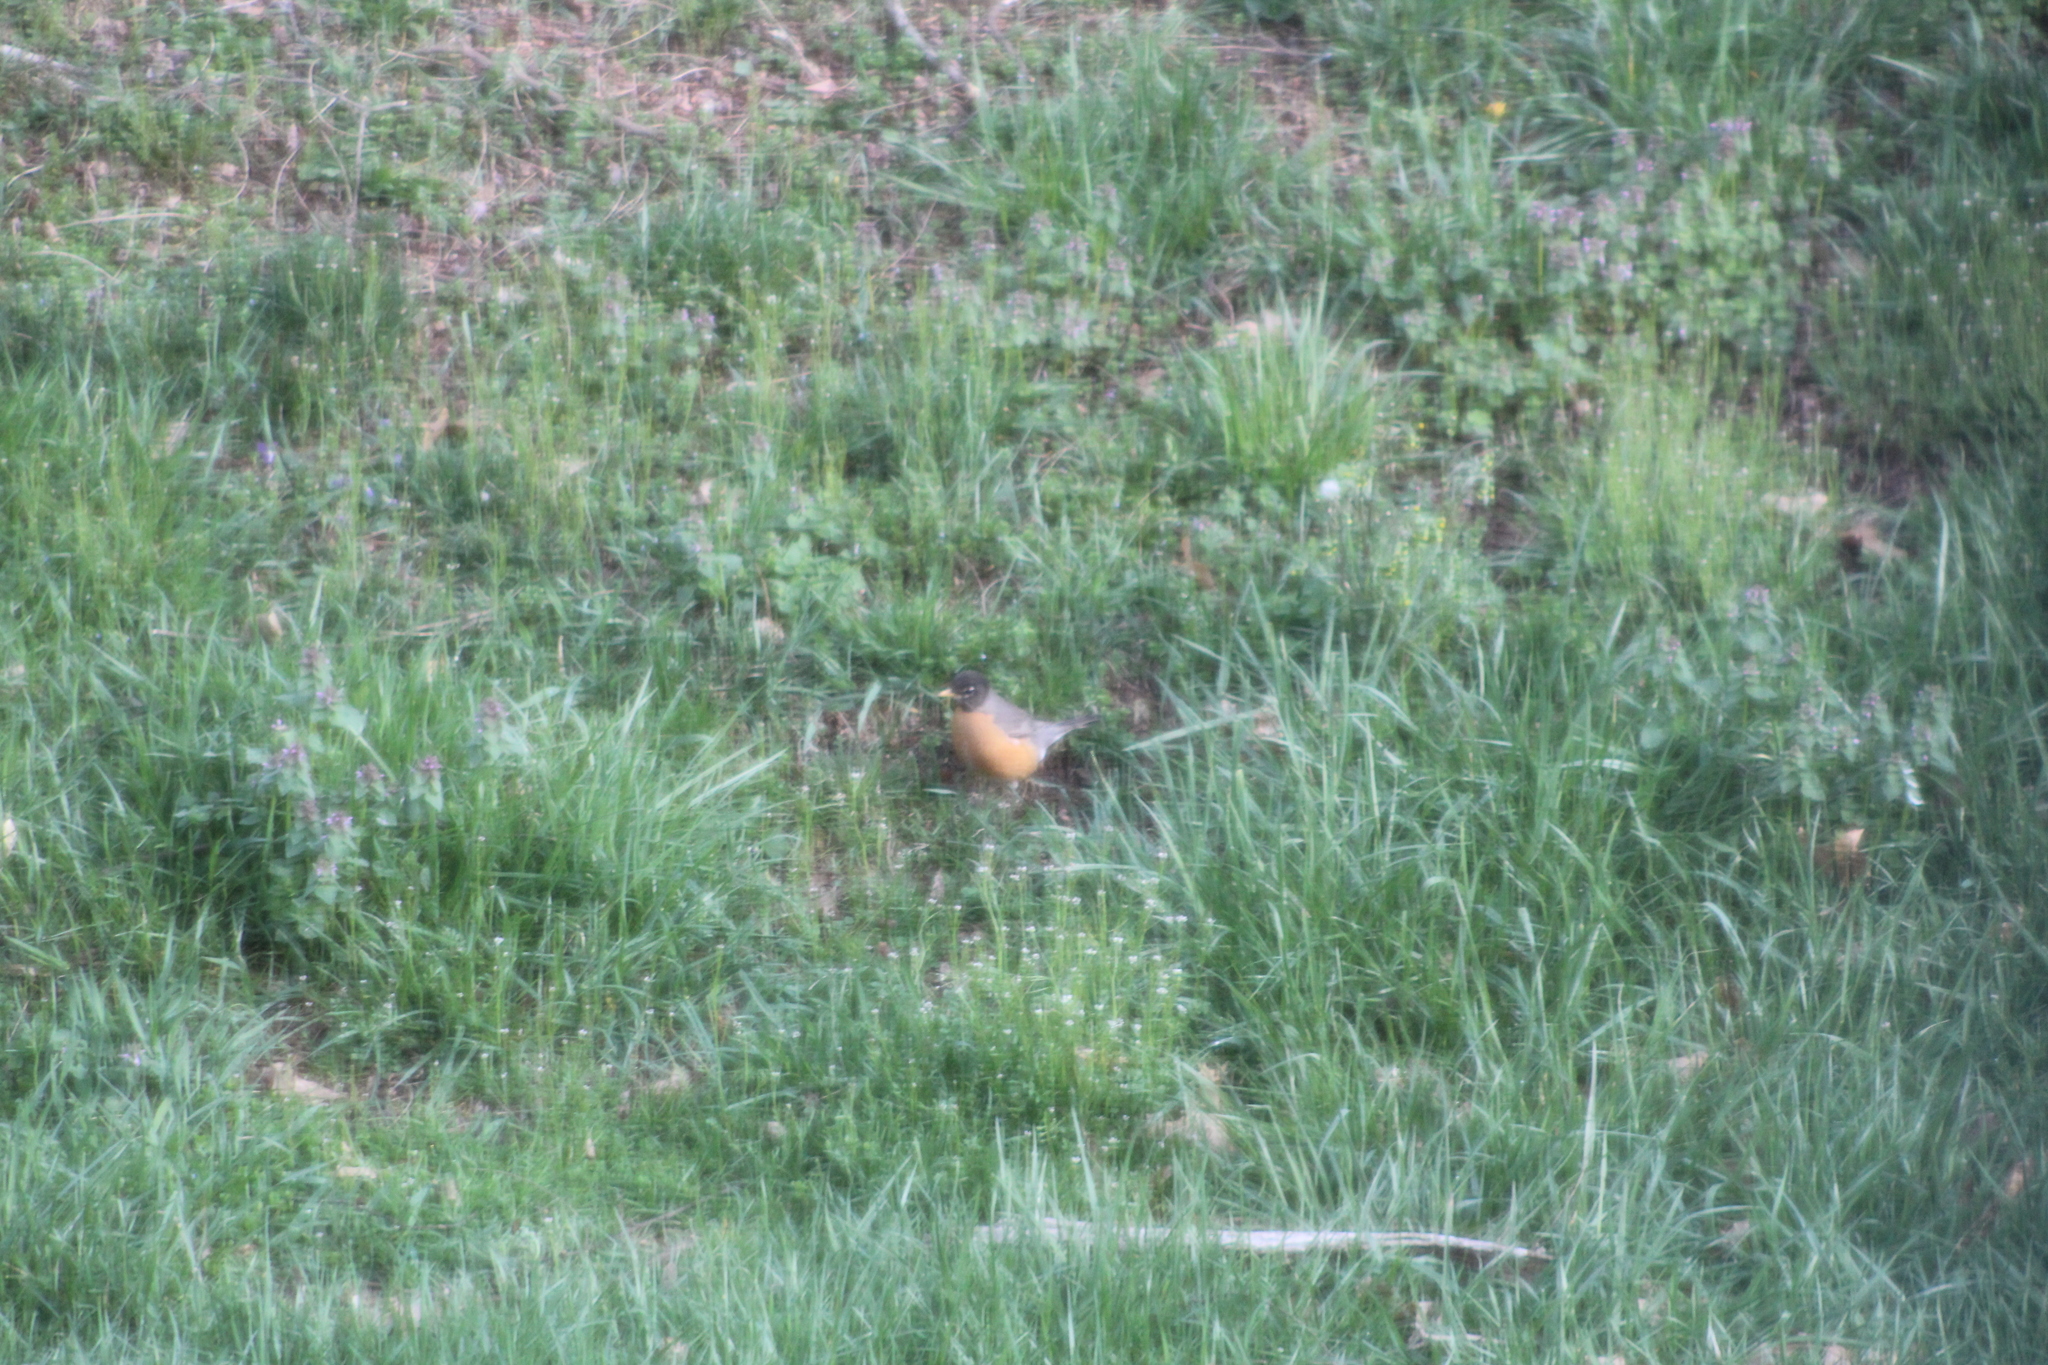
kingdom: Animalia
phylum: Chordata
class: Aves
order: Passeriformes
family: Turdidae
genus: Turdus
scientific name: Turdus migratorius
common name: American robin
